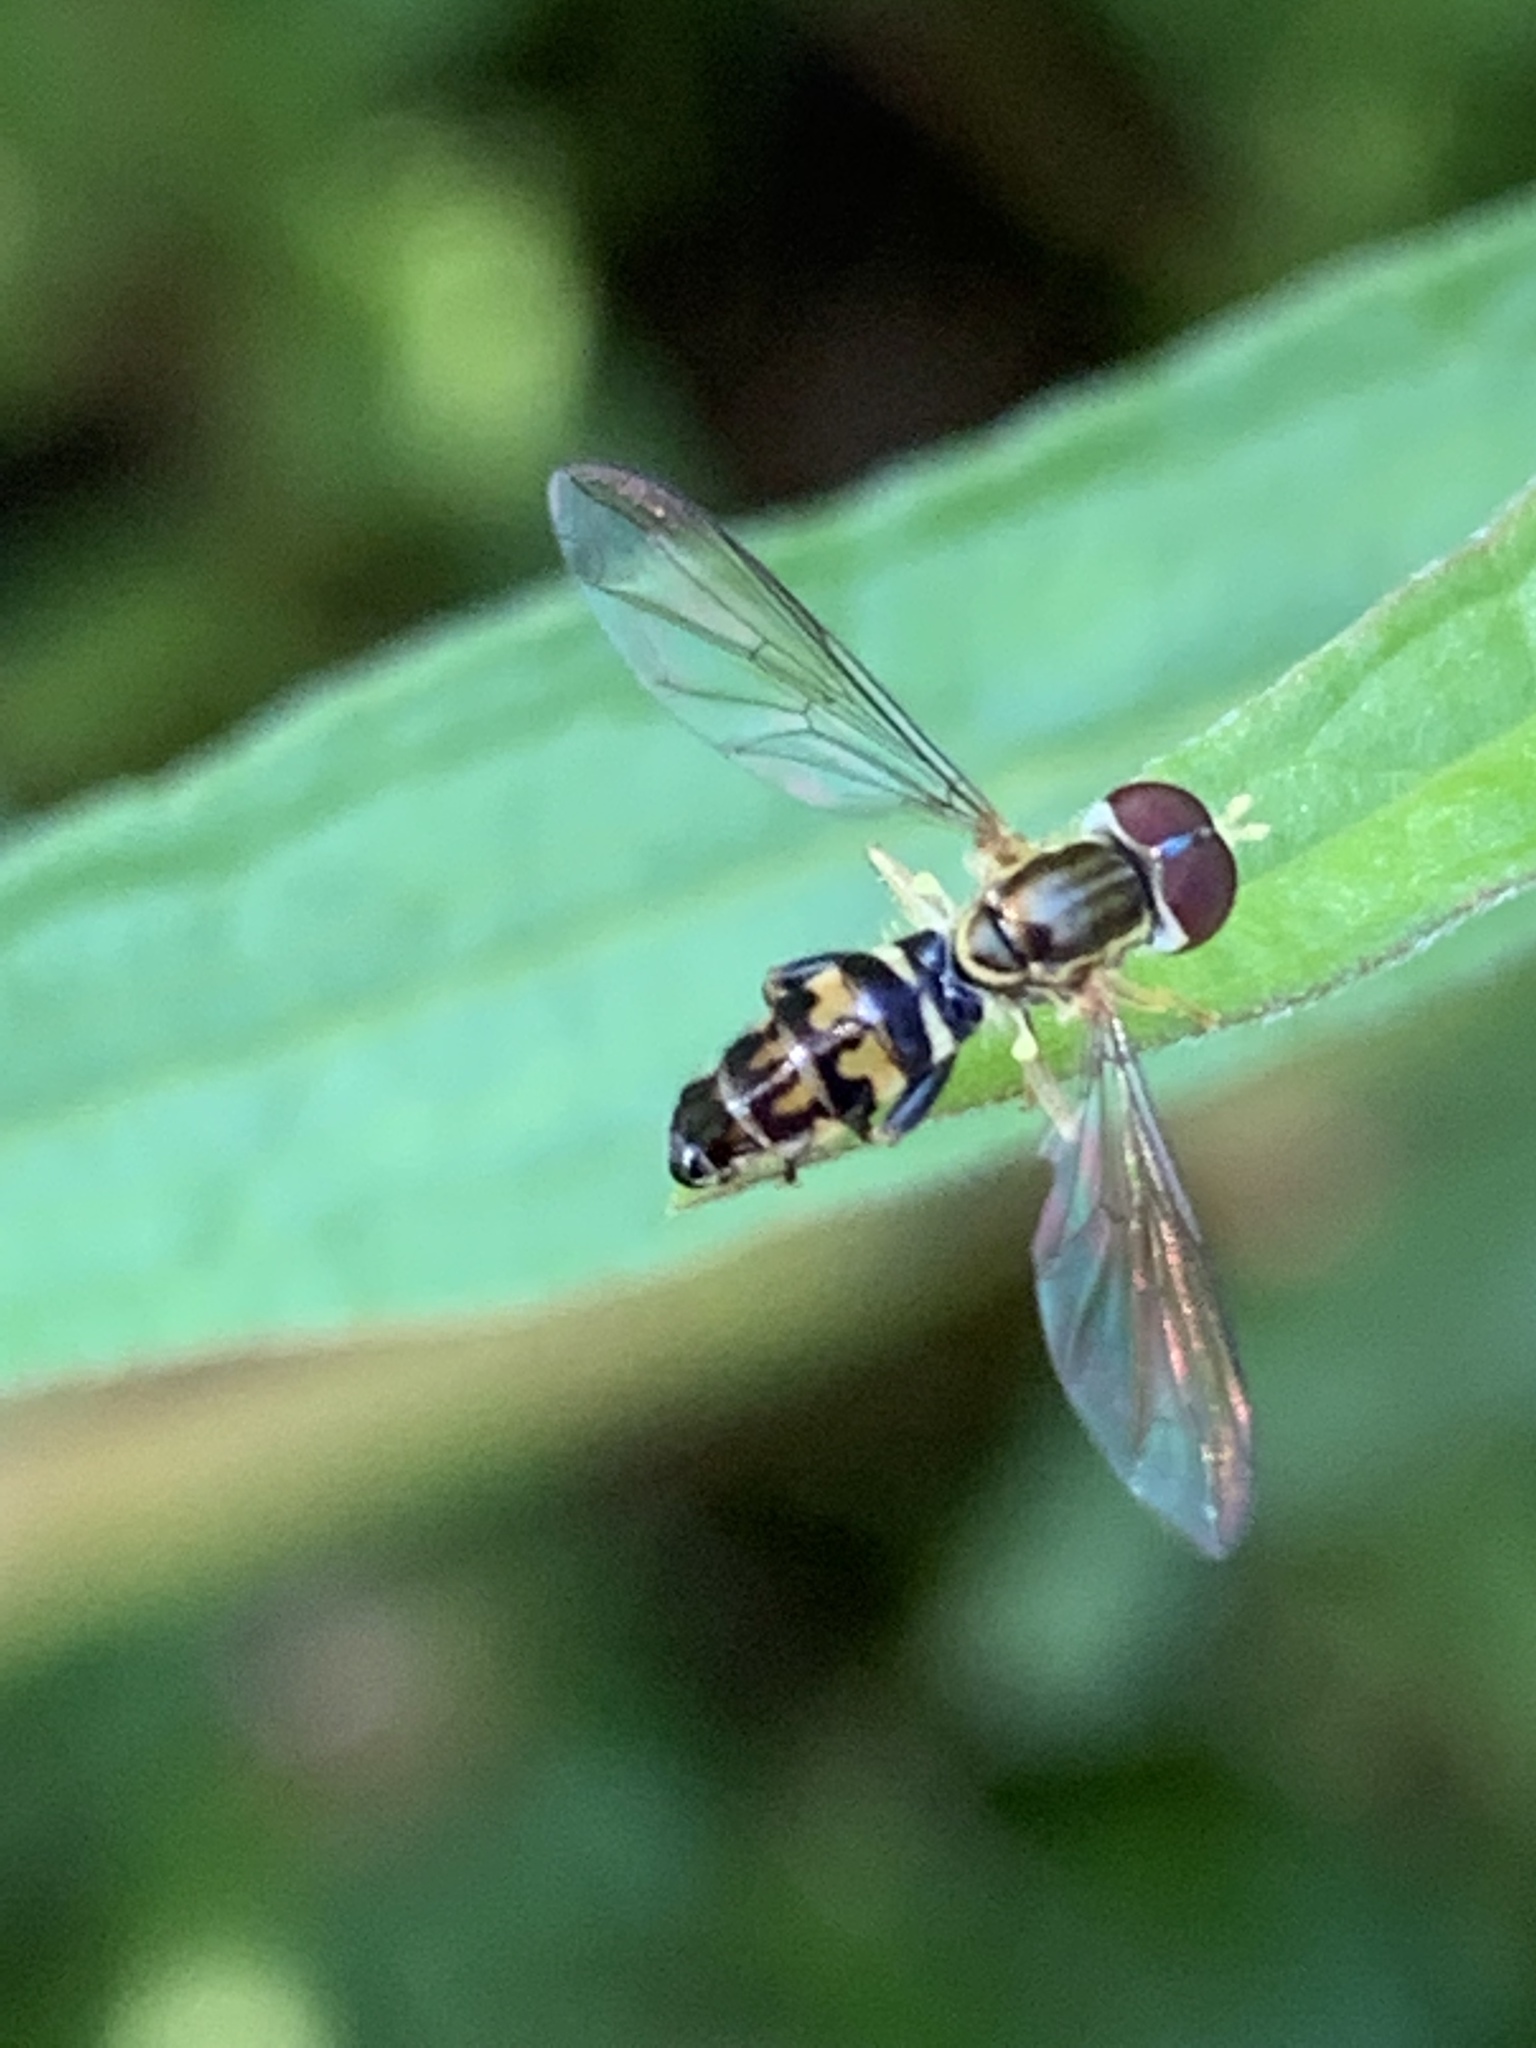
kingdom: Animalia
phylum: Arthropoda
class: Insecta
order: Diptera
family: Syrphidae
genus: Toxomerus
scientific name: Toxomerus geminatus
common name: Eastern calligrapher
